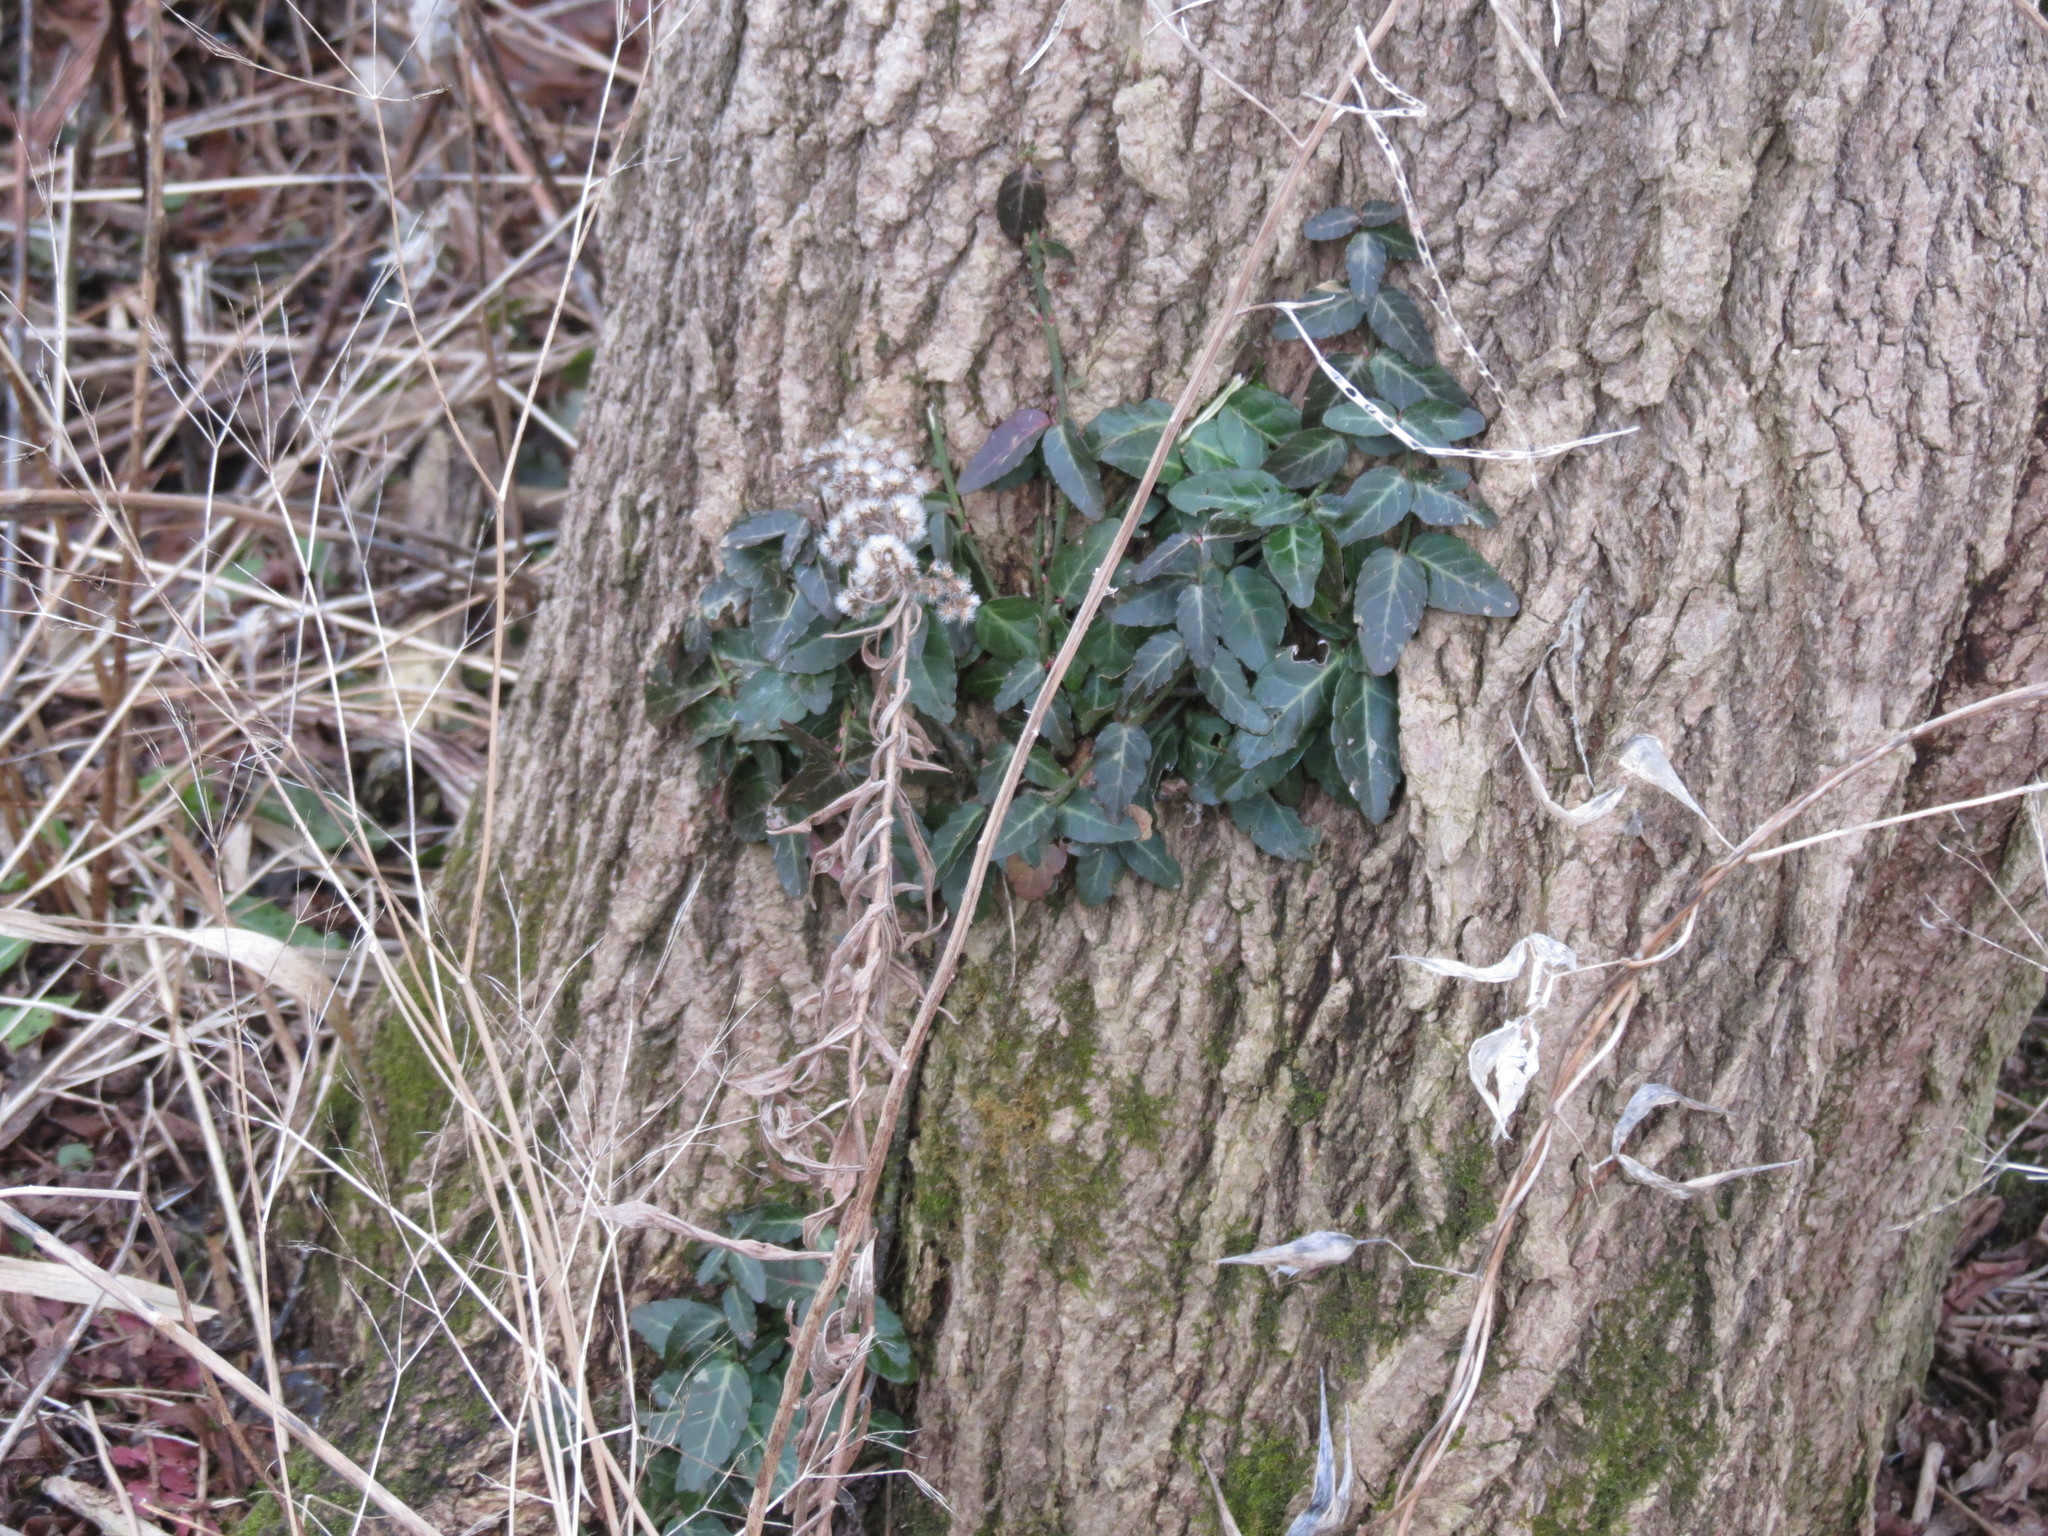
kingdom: Plantae
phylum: Tracheophyta
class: Magnoliopsida
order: Celastrales
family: Celastraceae
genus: Euonymus
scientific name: Euonymus fortunei
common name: Climbing euonymus
